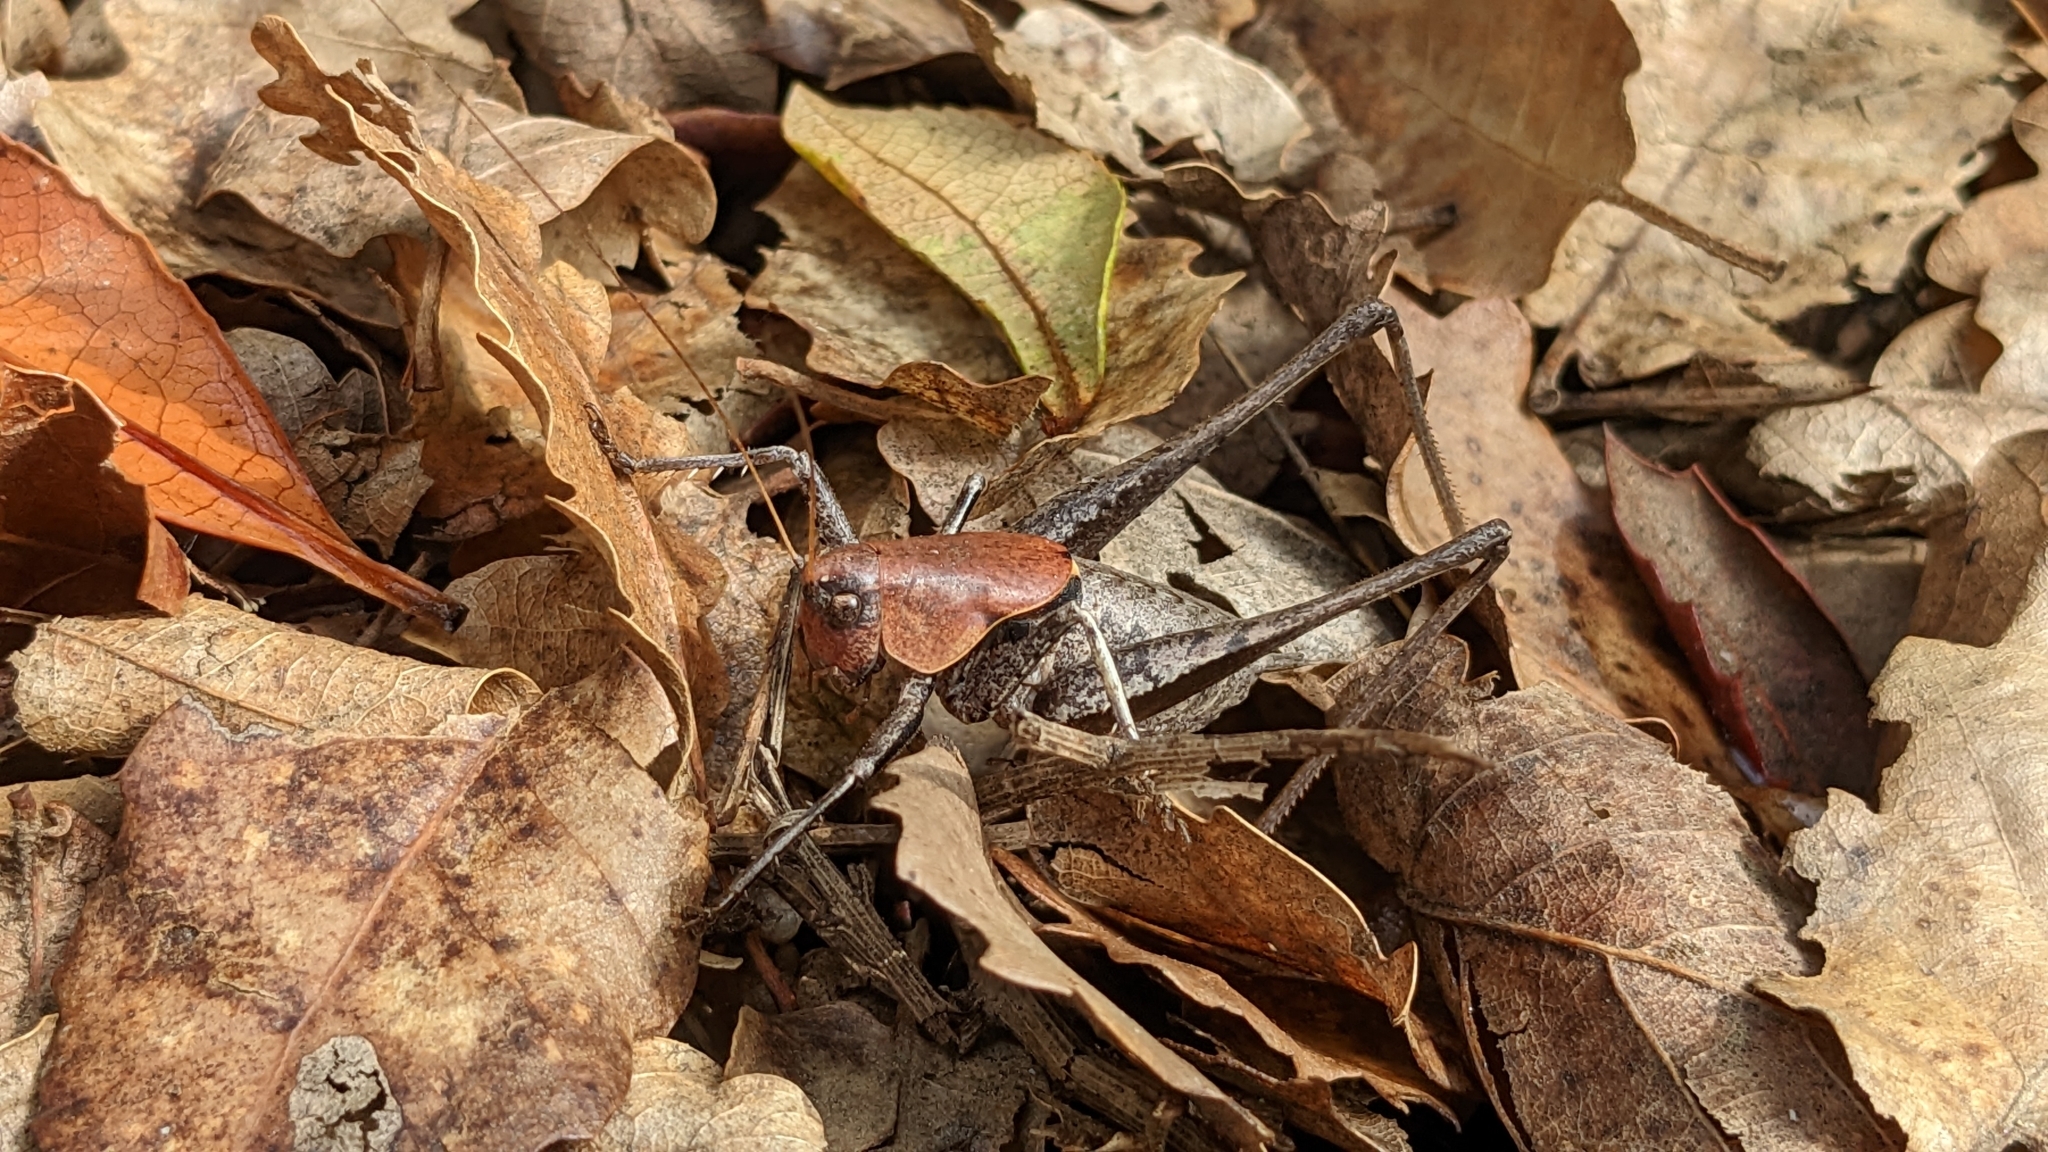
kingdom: Animalia
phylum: Arthropoda
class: Insecta
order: Orthoptera
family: Tettigoniidae
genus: Thyreonotus
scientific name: Thyreonotus corsicus
